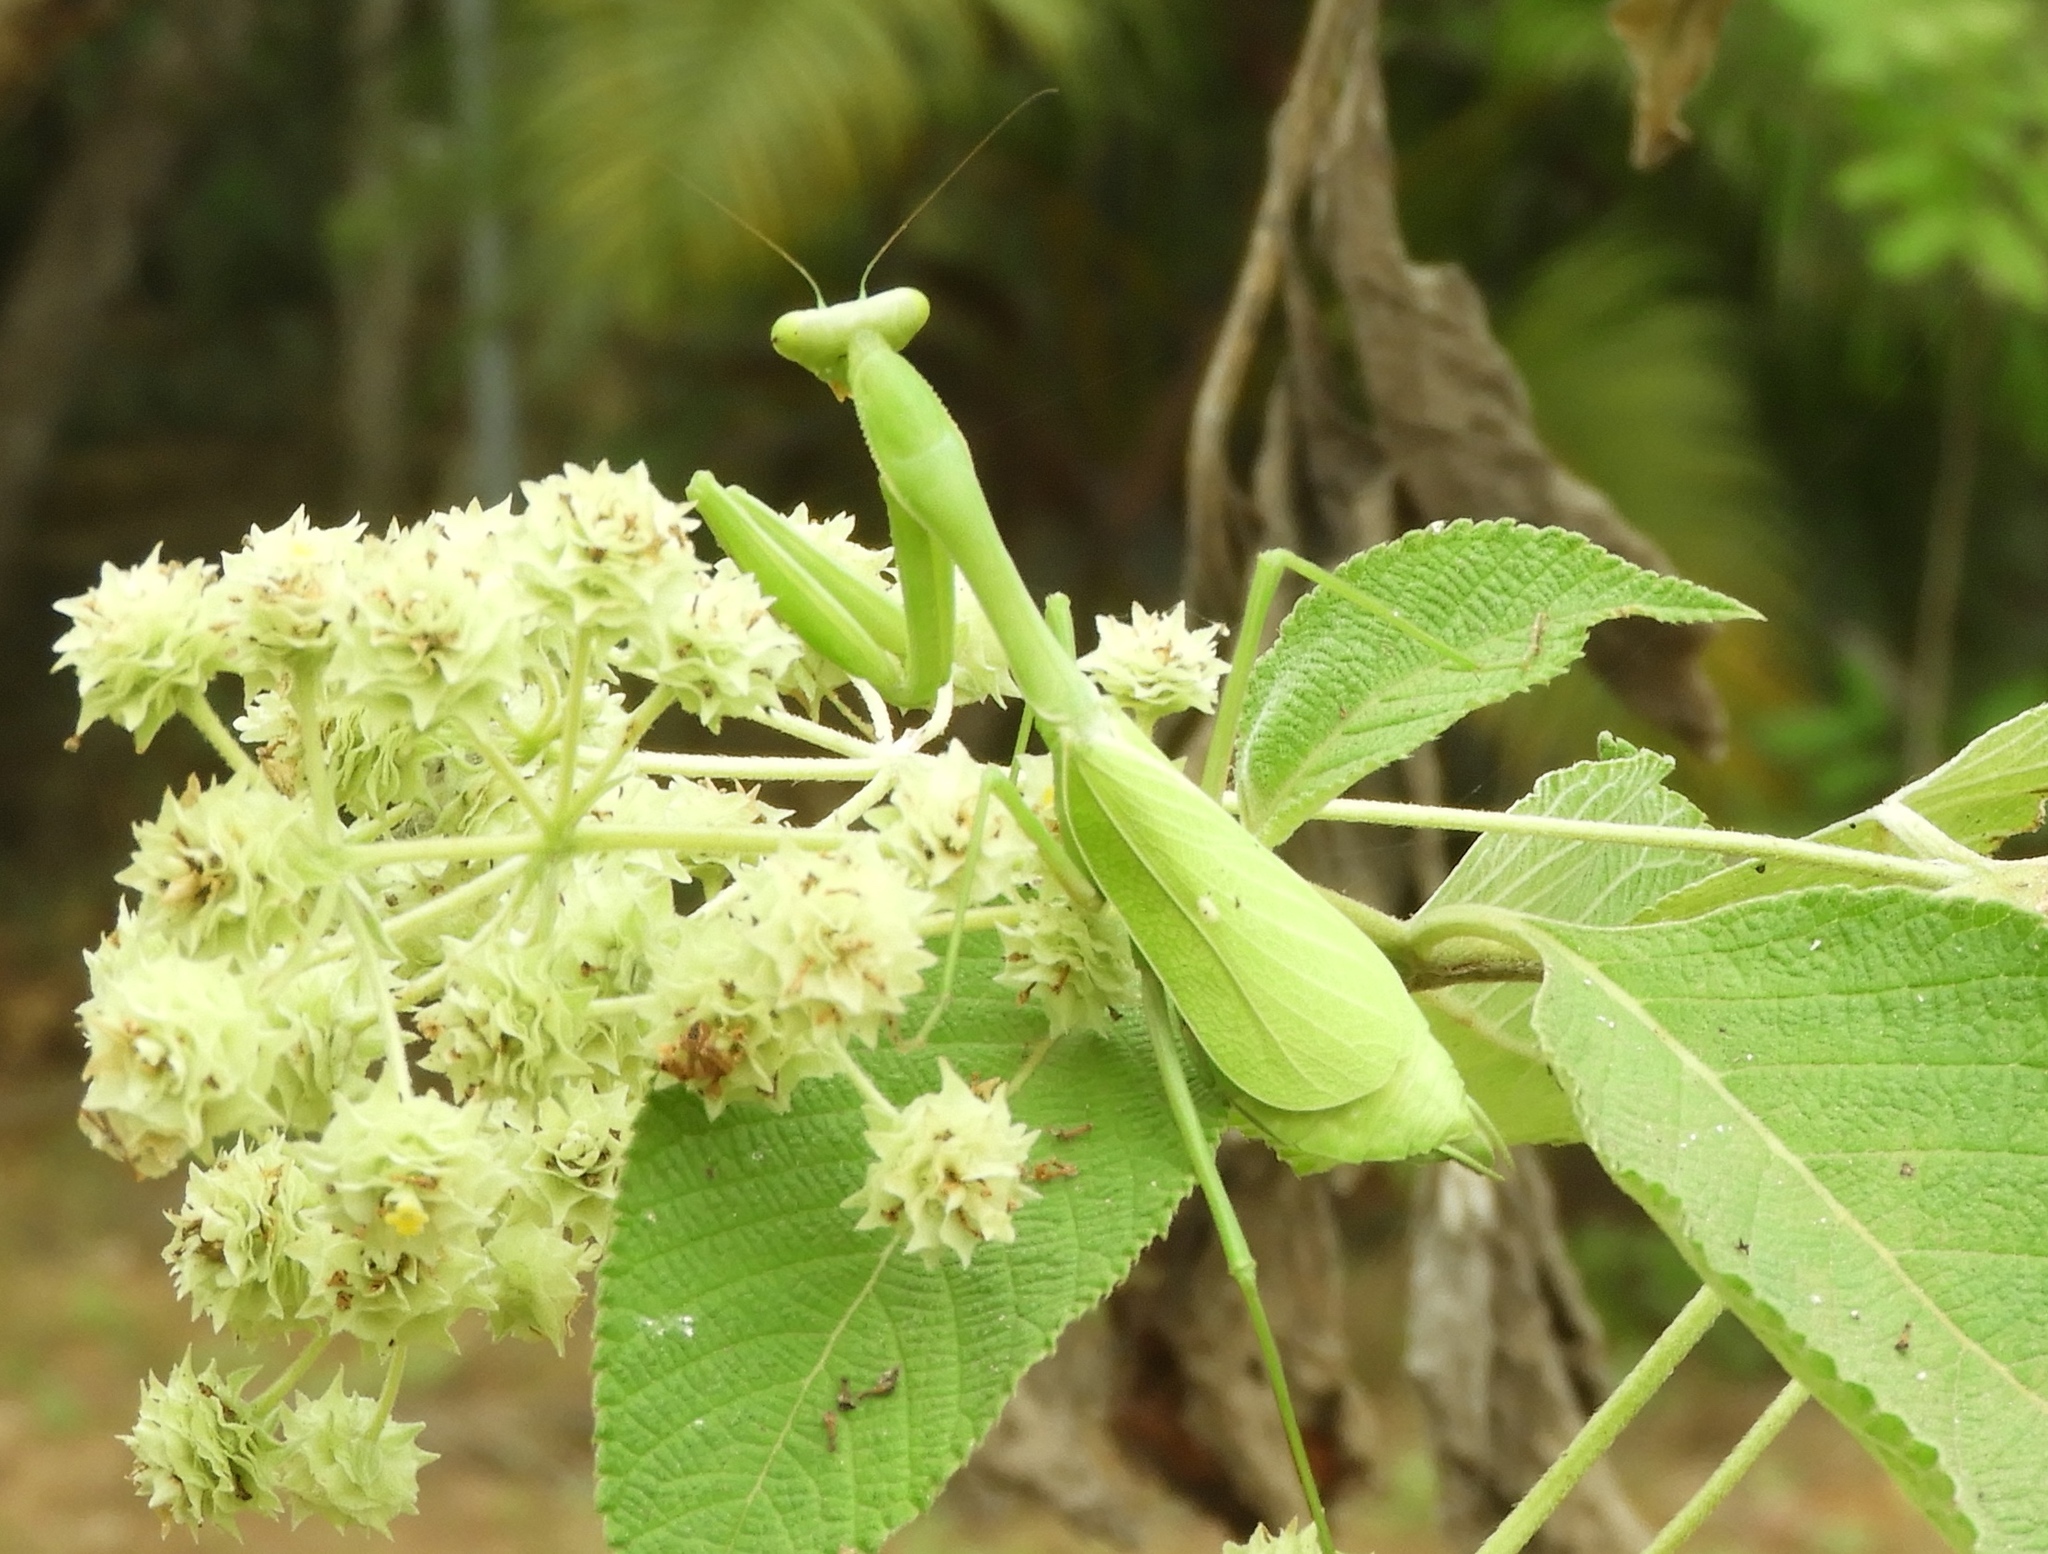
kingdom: Animalia
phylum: Arthropoda
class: Insecta
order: Mantodea
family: Mantidae
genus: Stagmomantis
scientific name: Stagmomantis limbata
